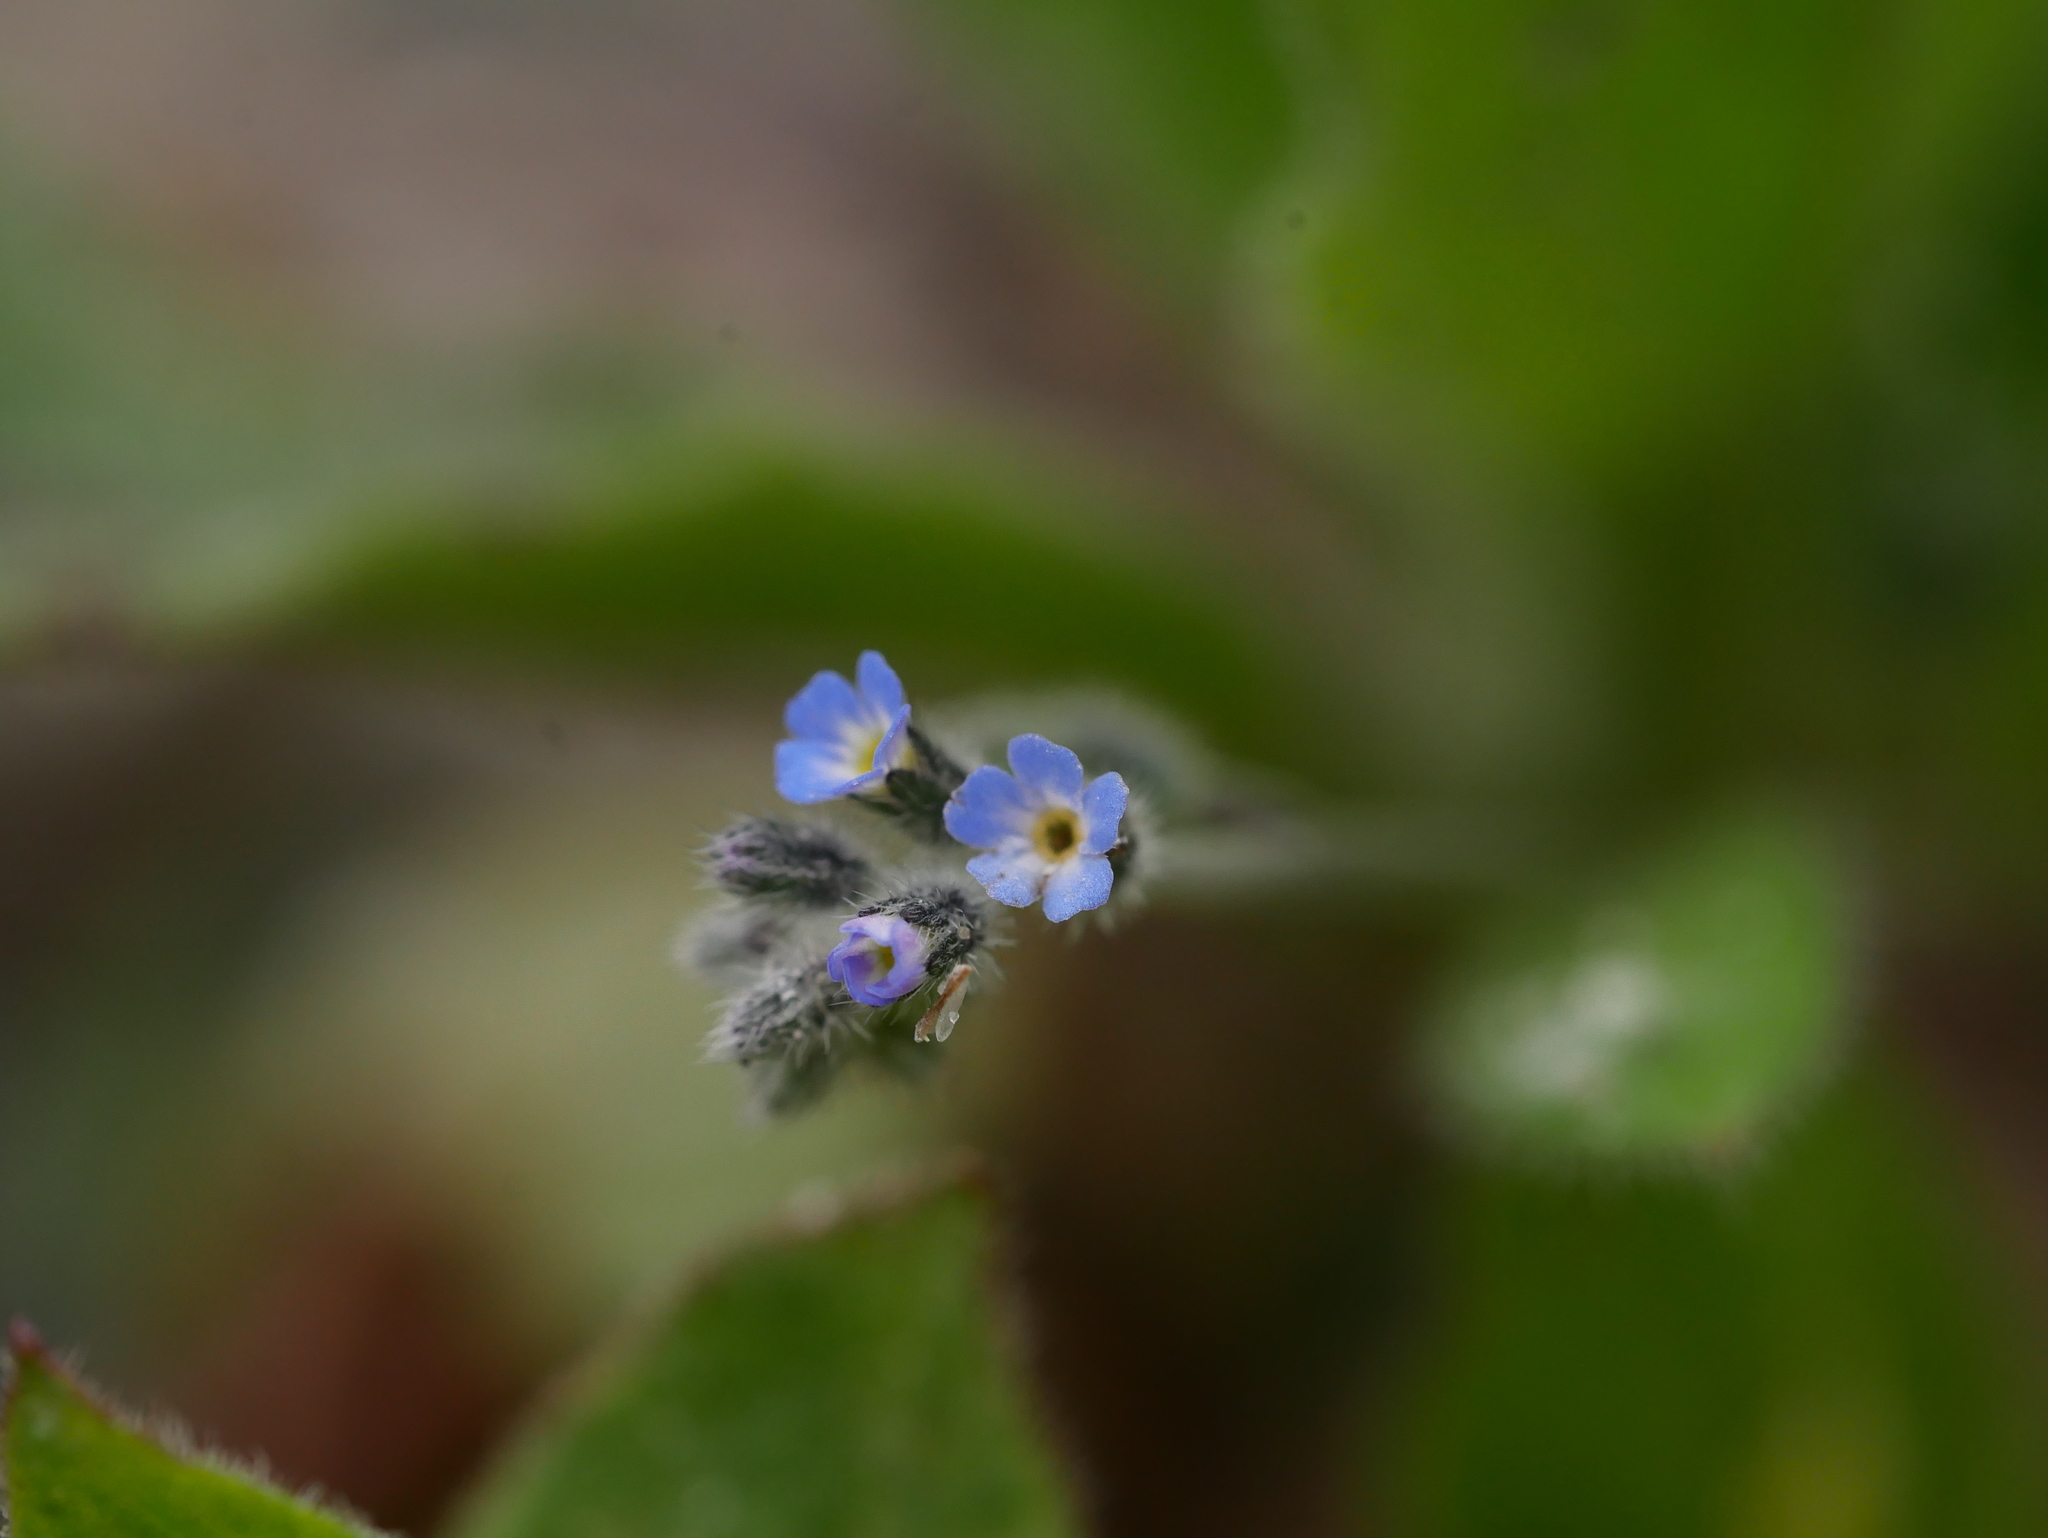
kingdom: Plantae
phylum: Tracheophyta
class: Magnoliopsida
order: Boraginales
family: Boraginaceae
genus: Myosotis
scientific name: Myosotis arvensis
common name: Field forget-me-not
